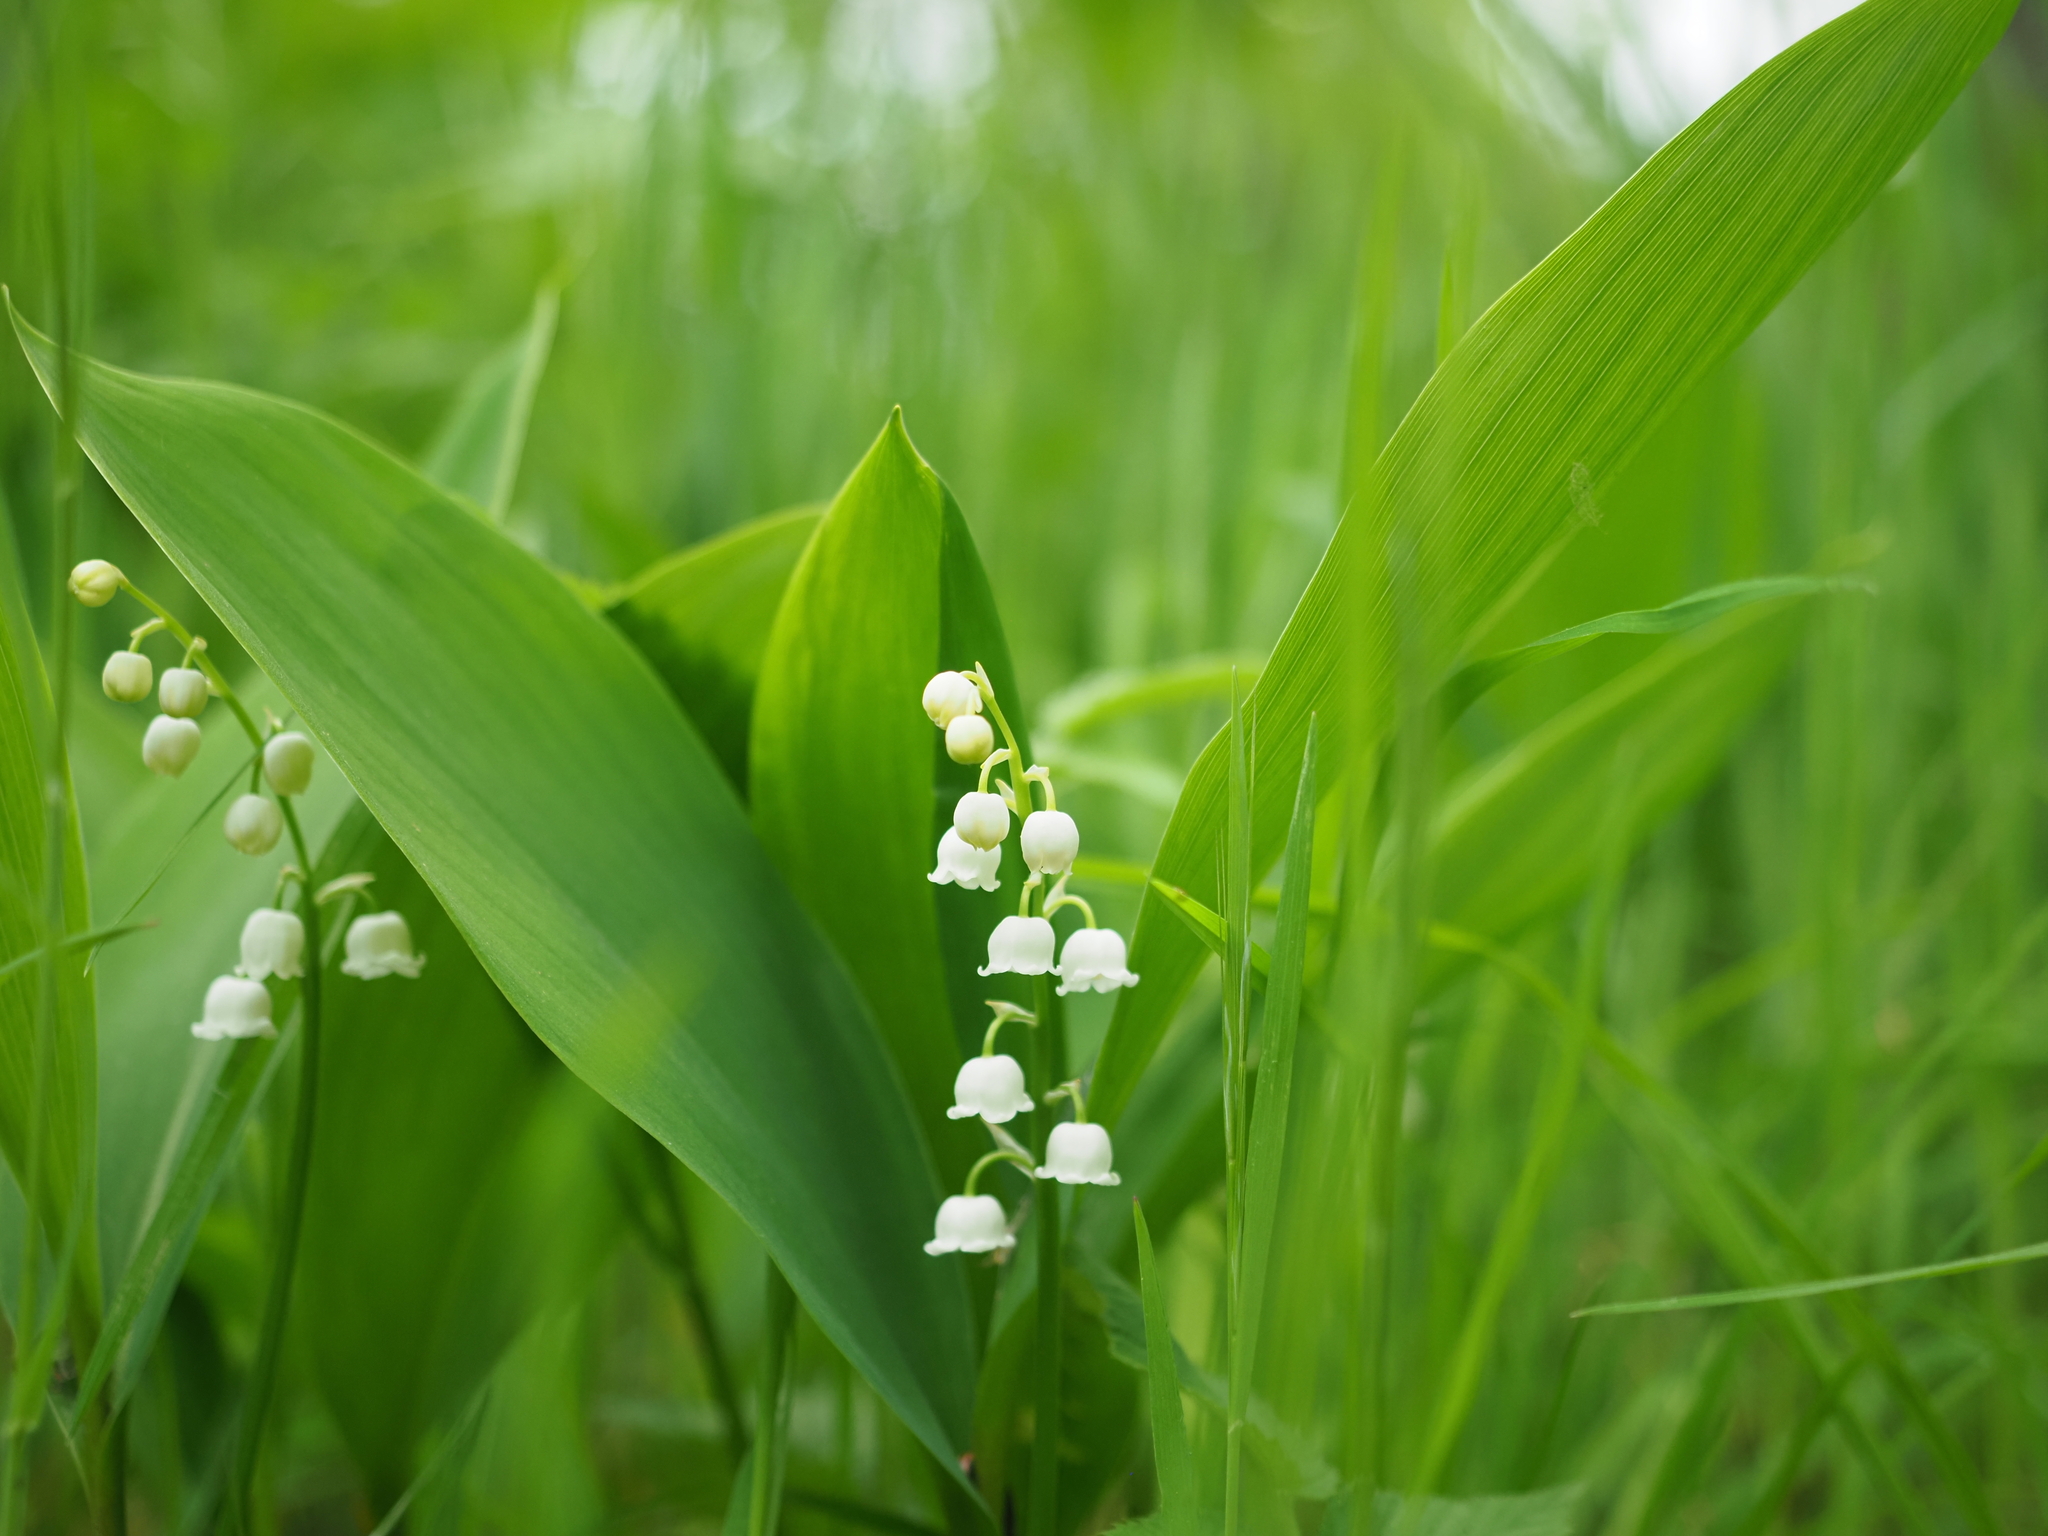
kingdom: Plantae
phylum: Tracheophyta
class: Liliopsida
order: Asparagales
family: Asparagaceae
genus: Convallaria
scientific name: Convallaria majalis
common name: Lily-of-the-valley
